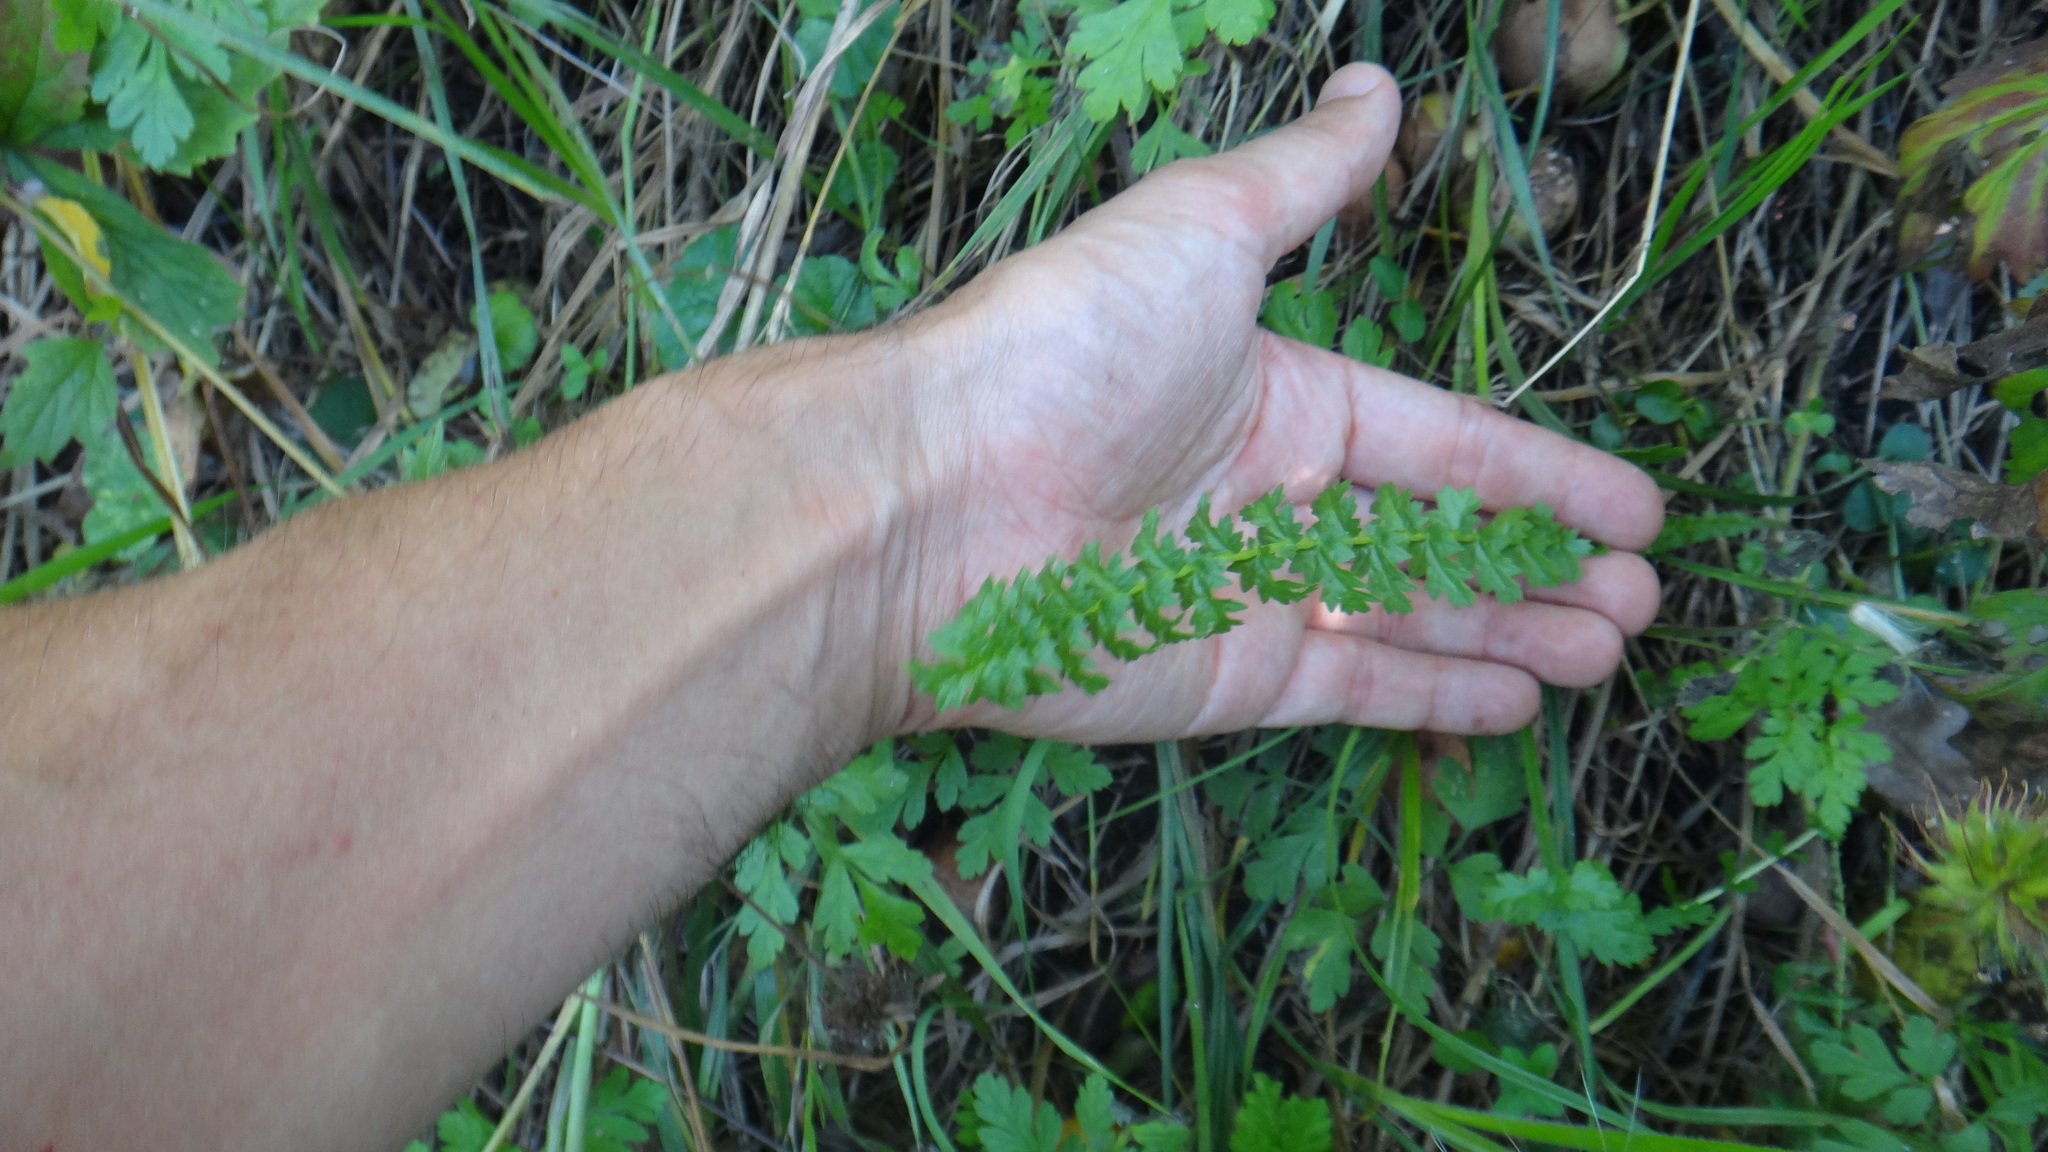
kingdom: Plantae
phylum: Tracheophyta
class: Magnoliopsida
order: Rosales
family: Rosaceae
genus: Filipendula
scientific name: Filipendula vulgaris
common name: Dropwort
